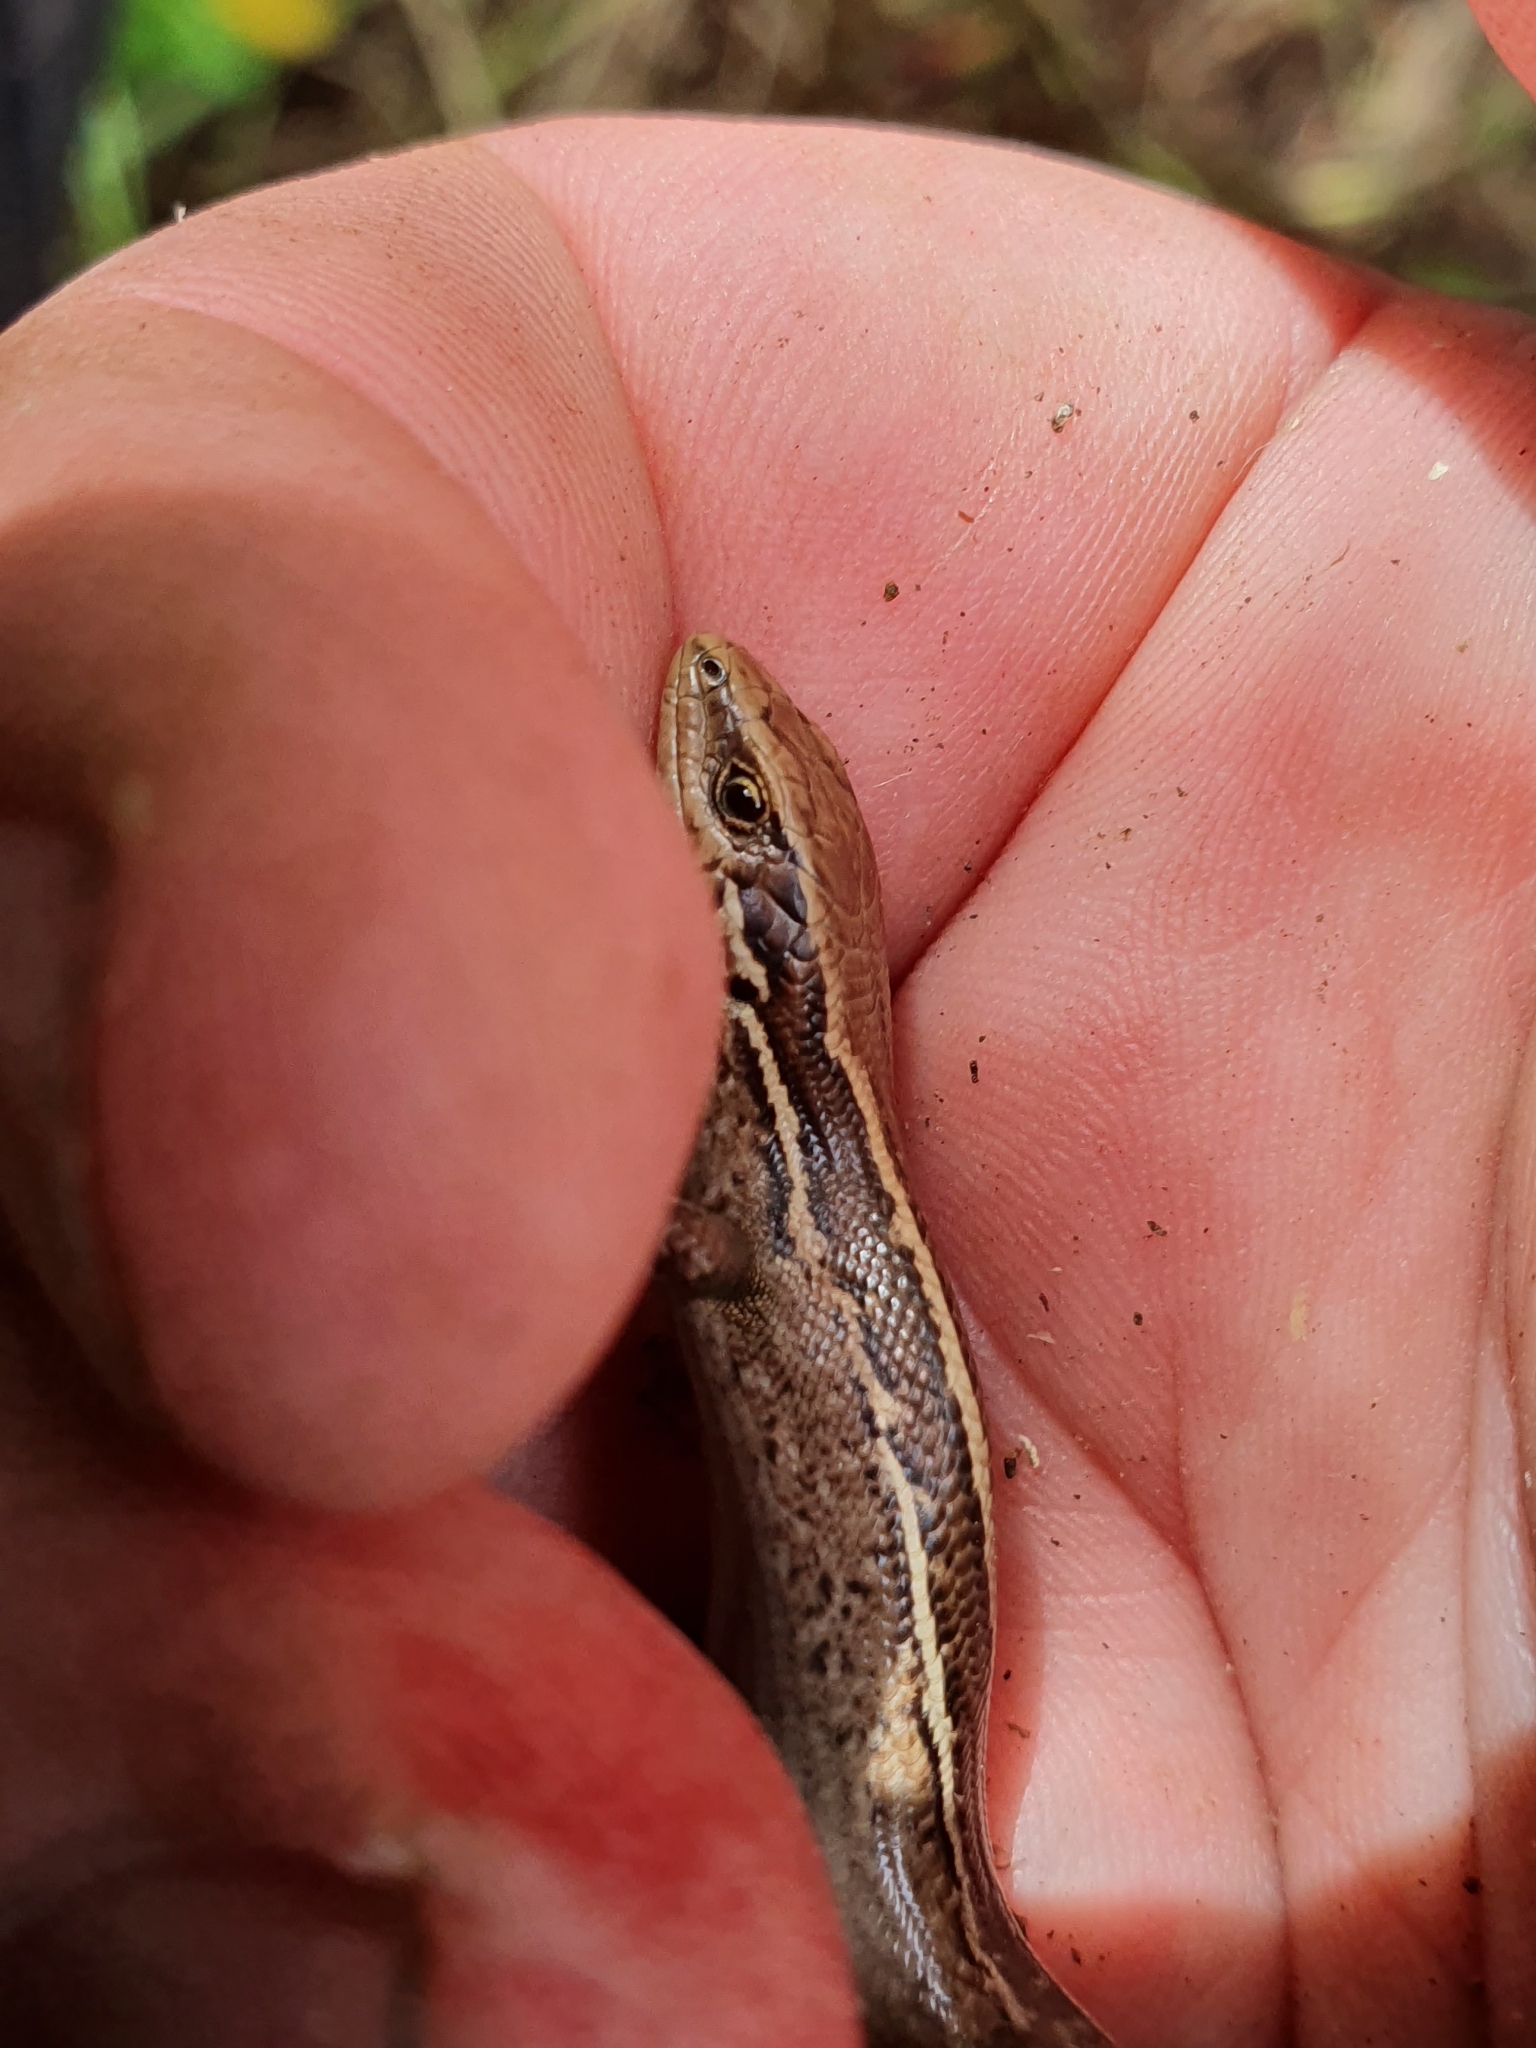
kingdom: Animalia
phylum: Chordata
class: Squamata
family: Scincidae
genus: Oligosoma
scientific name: Oligosoma polychroma
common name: Common new zealand skink
